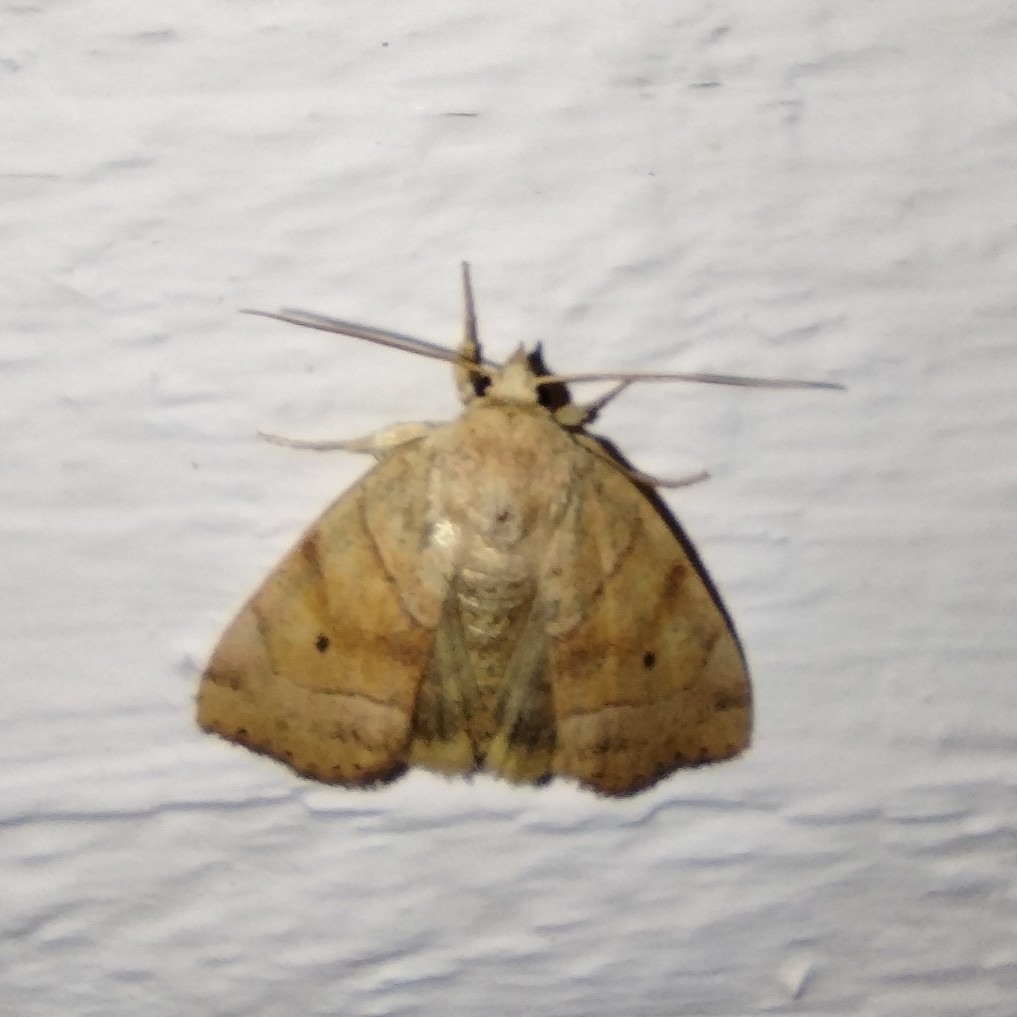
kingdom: Animalia
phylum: Arthropoda
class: Insecta
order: Lepidoptera
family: Noctuidae
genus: Cosmia
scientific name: Cosmia trapezina
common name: Dun-bar
